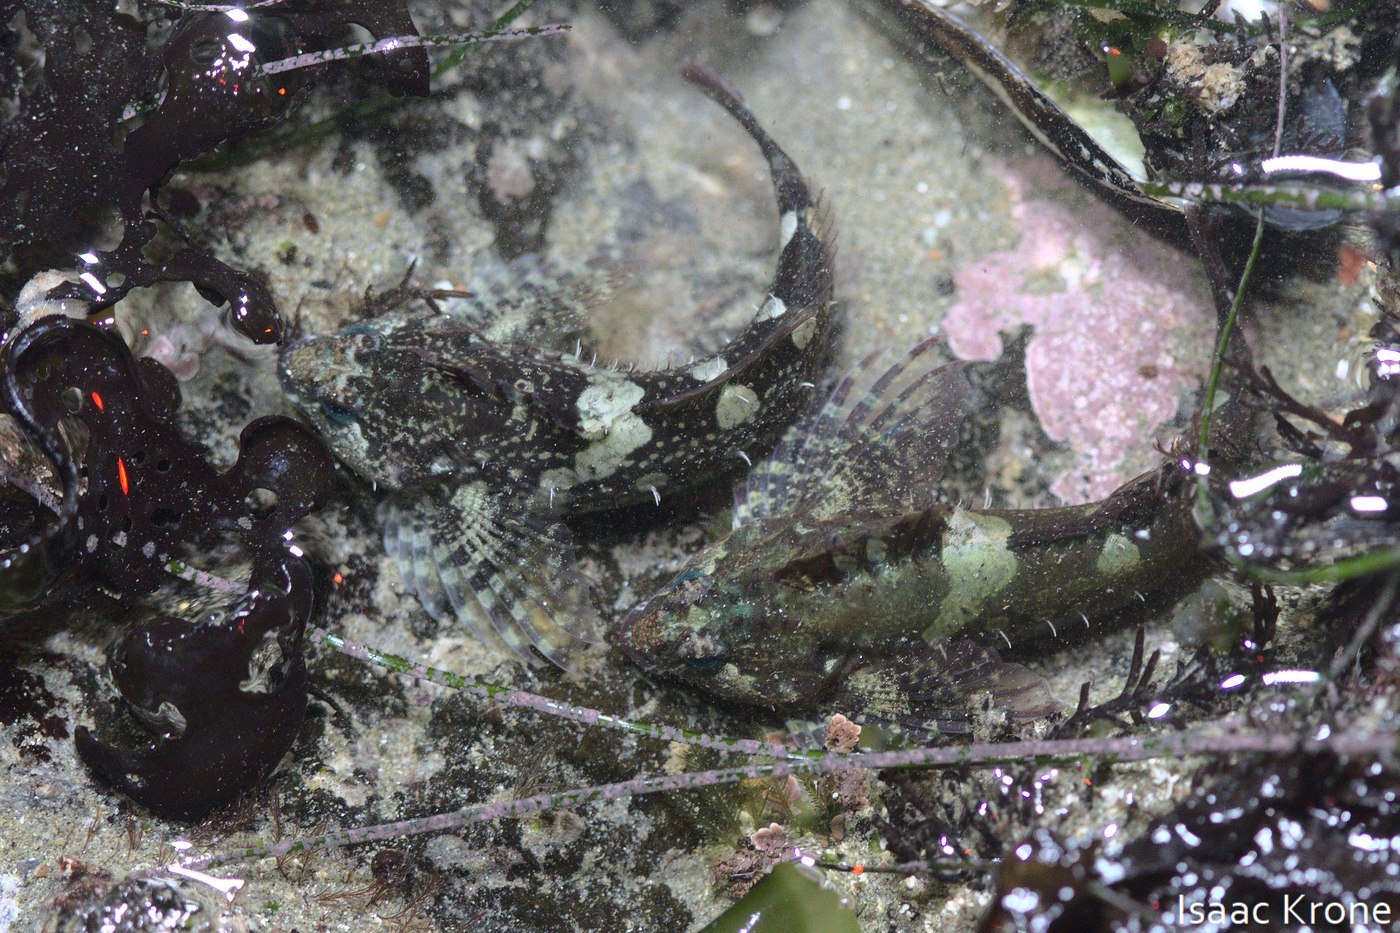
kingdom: Animalia
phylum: Chordata
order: Scorpaeniformes
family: Cottidae
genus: Oligocottus
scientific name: Oligocottus snyderi
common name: Fluffy sculpin
